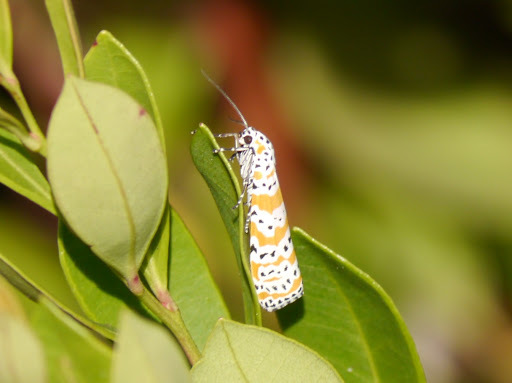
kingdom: Animalia
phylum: Arthropoda
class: Insecta
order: Lepidoptera
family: Erebidae
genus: Utetheisa
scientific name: Utetheisa ornatrix
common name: Beautiful utetheisa
